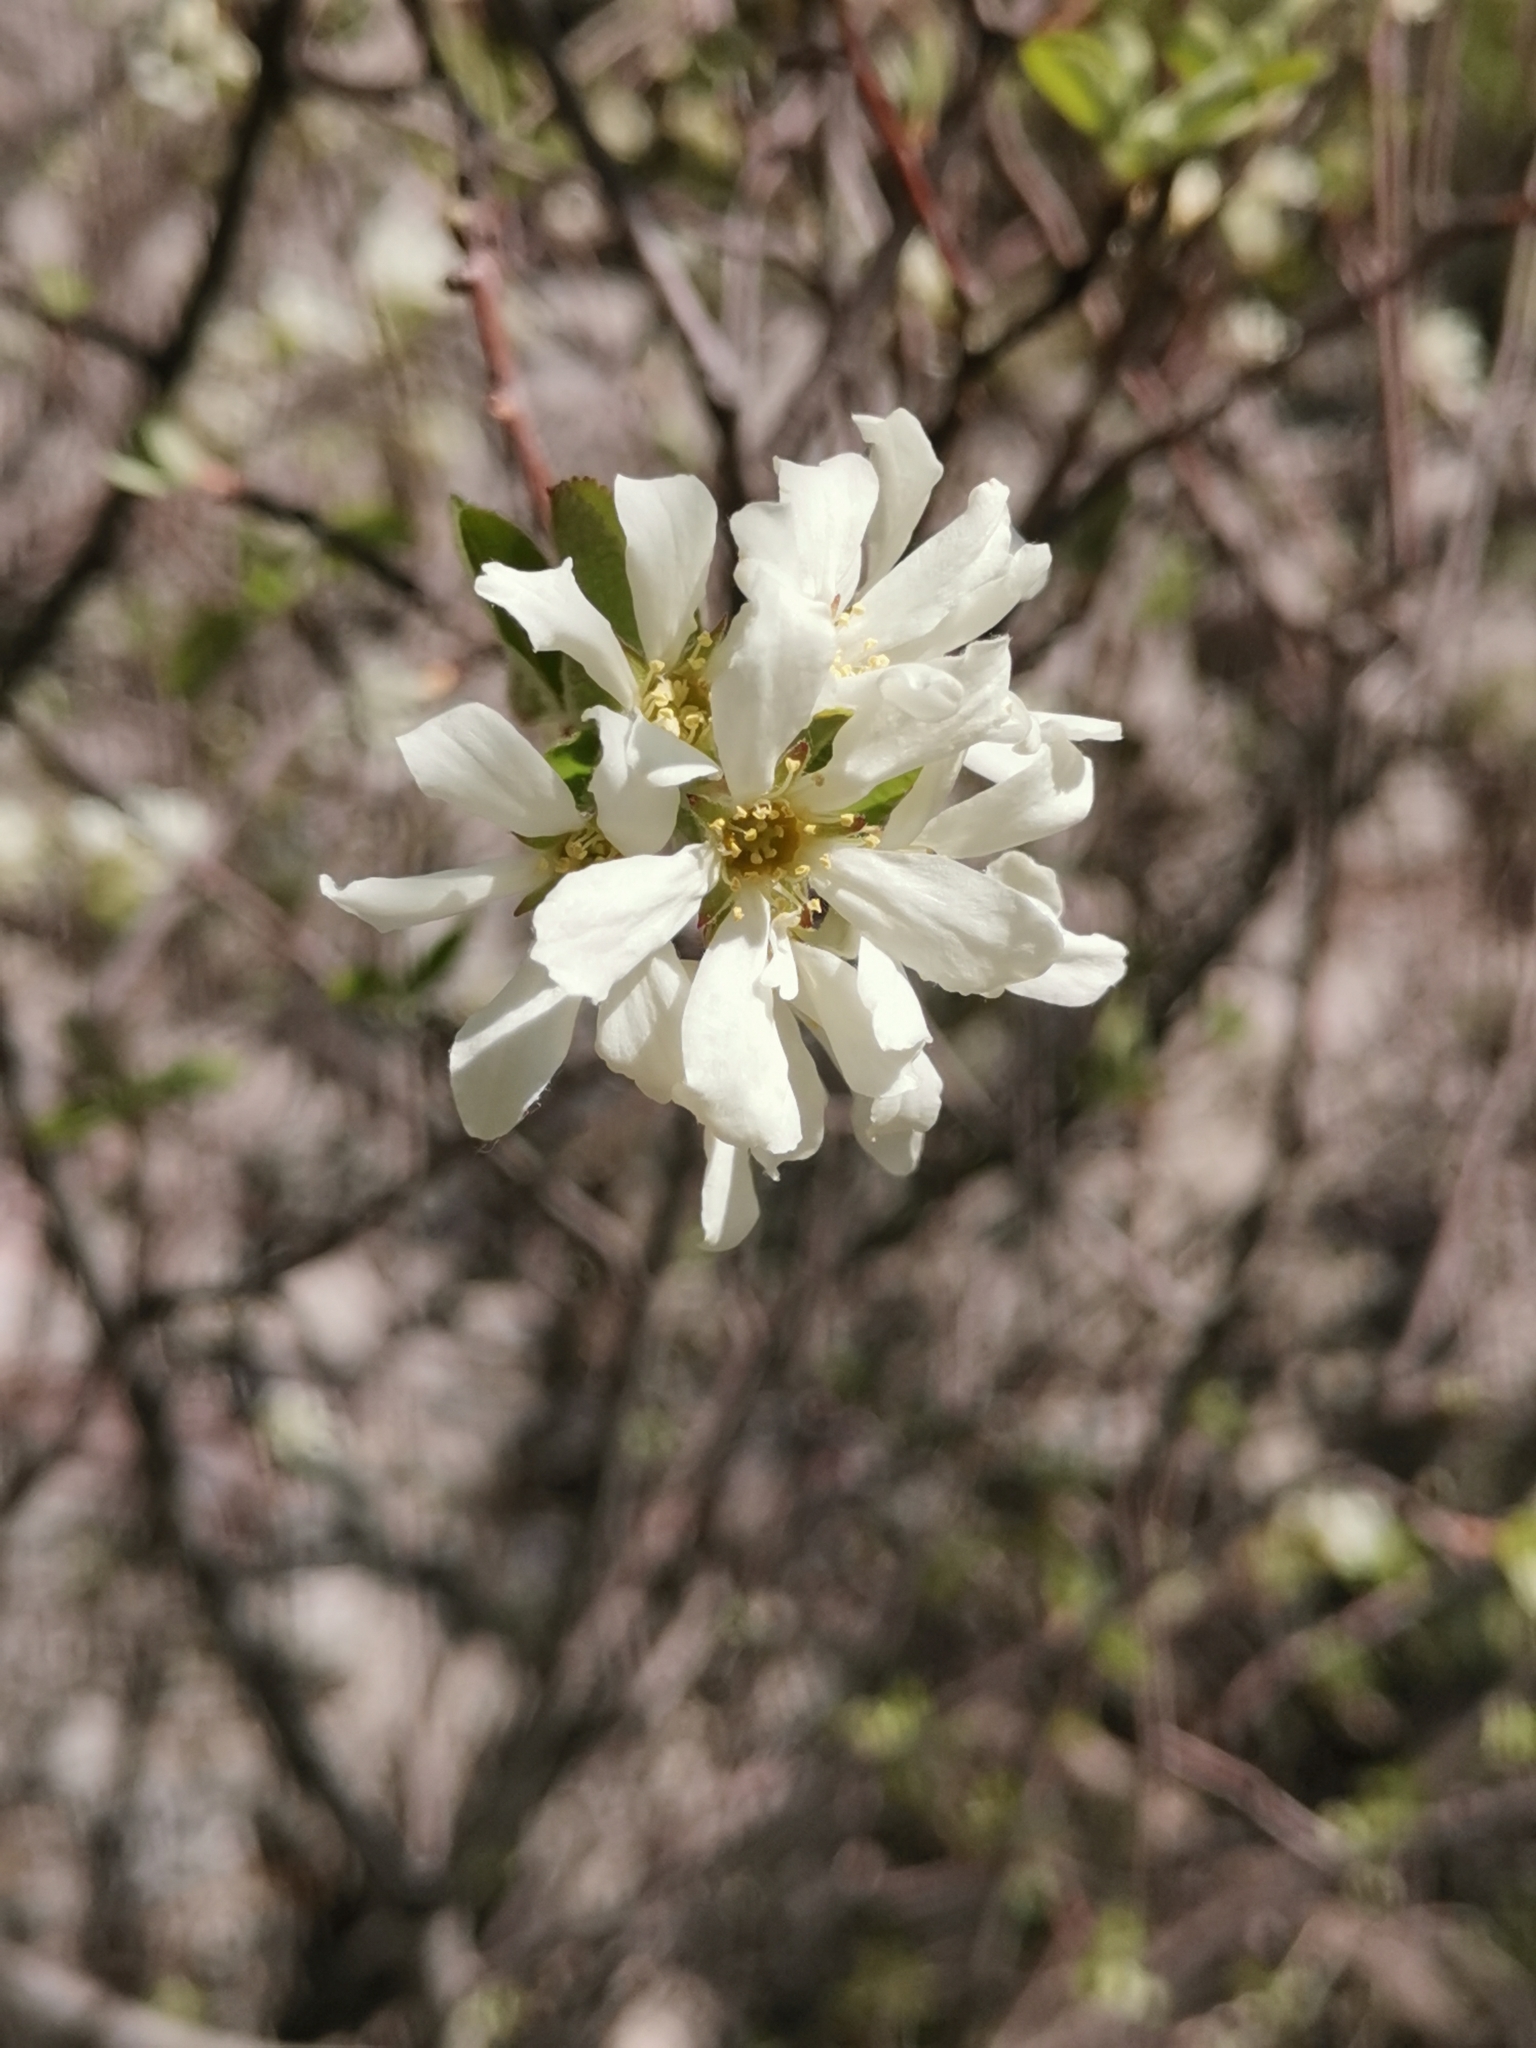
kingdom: Plantae
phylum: Tracheophyta
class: Magnoliopsida
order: Rosales
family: Rosaceae
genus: Amelanchier
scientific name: Amelanchier ovalis
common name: Serviceberry
